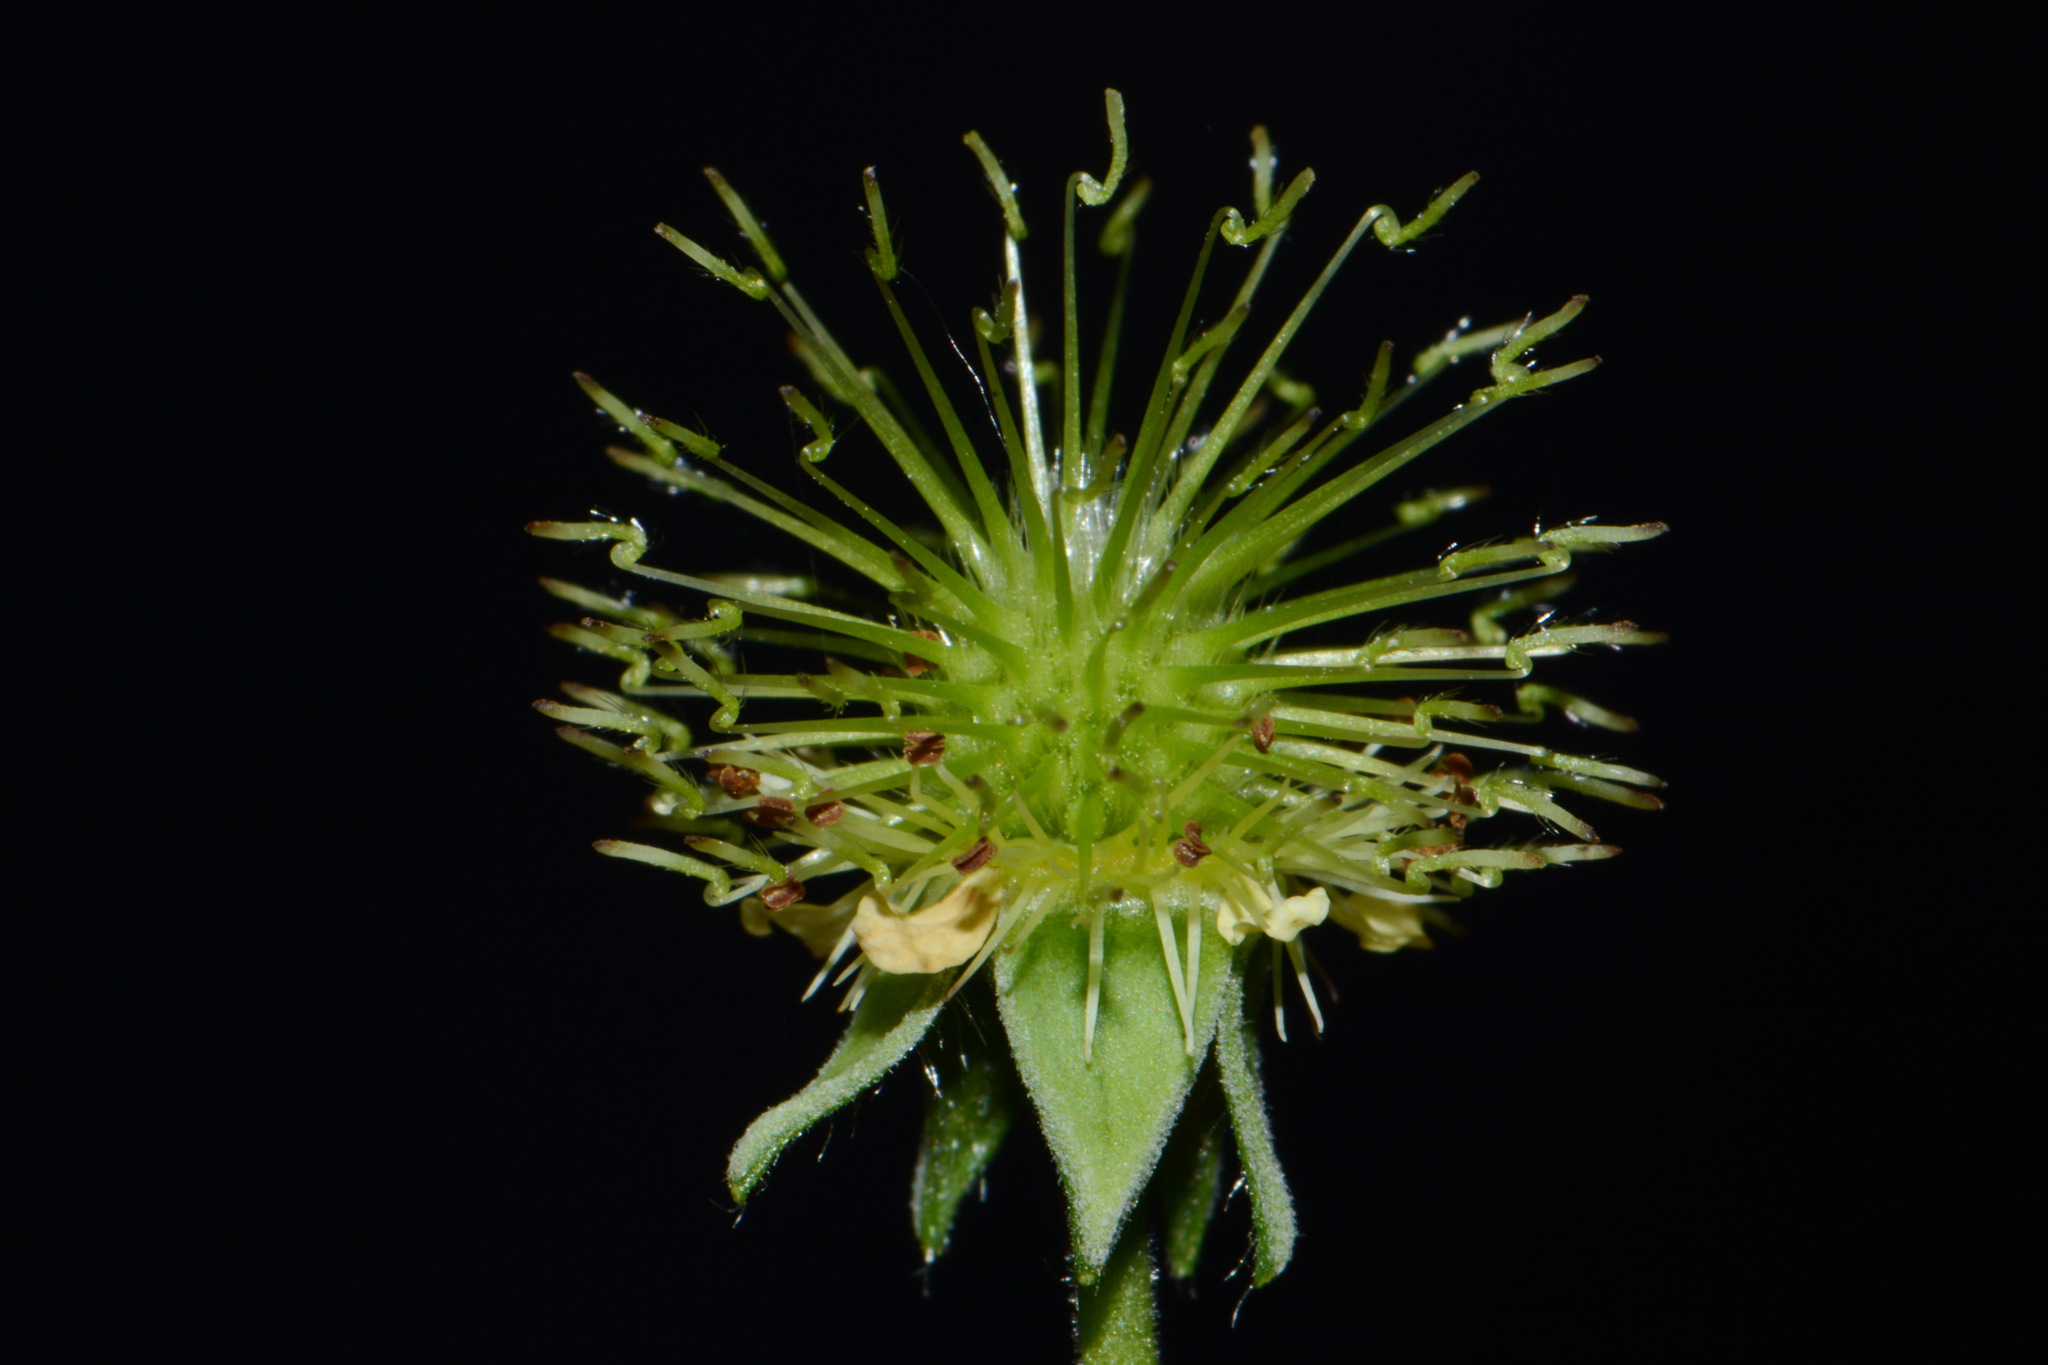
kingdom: Plantae
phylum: Tracheophyta
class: Magnoliopsida
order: Rosales
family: Rosaceae
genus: Geum
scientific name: Geum virginianum
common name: Cream avens
